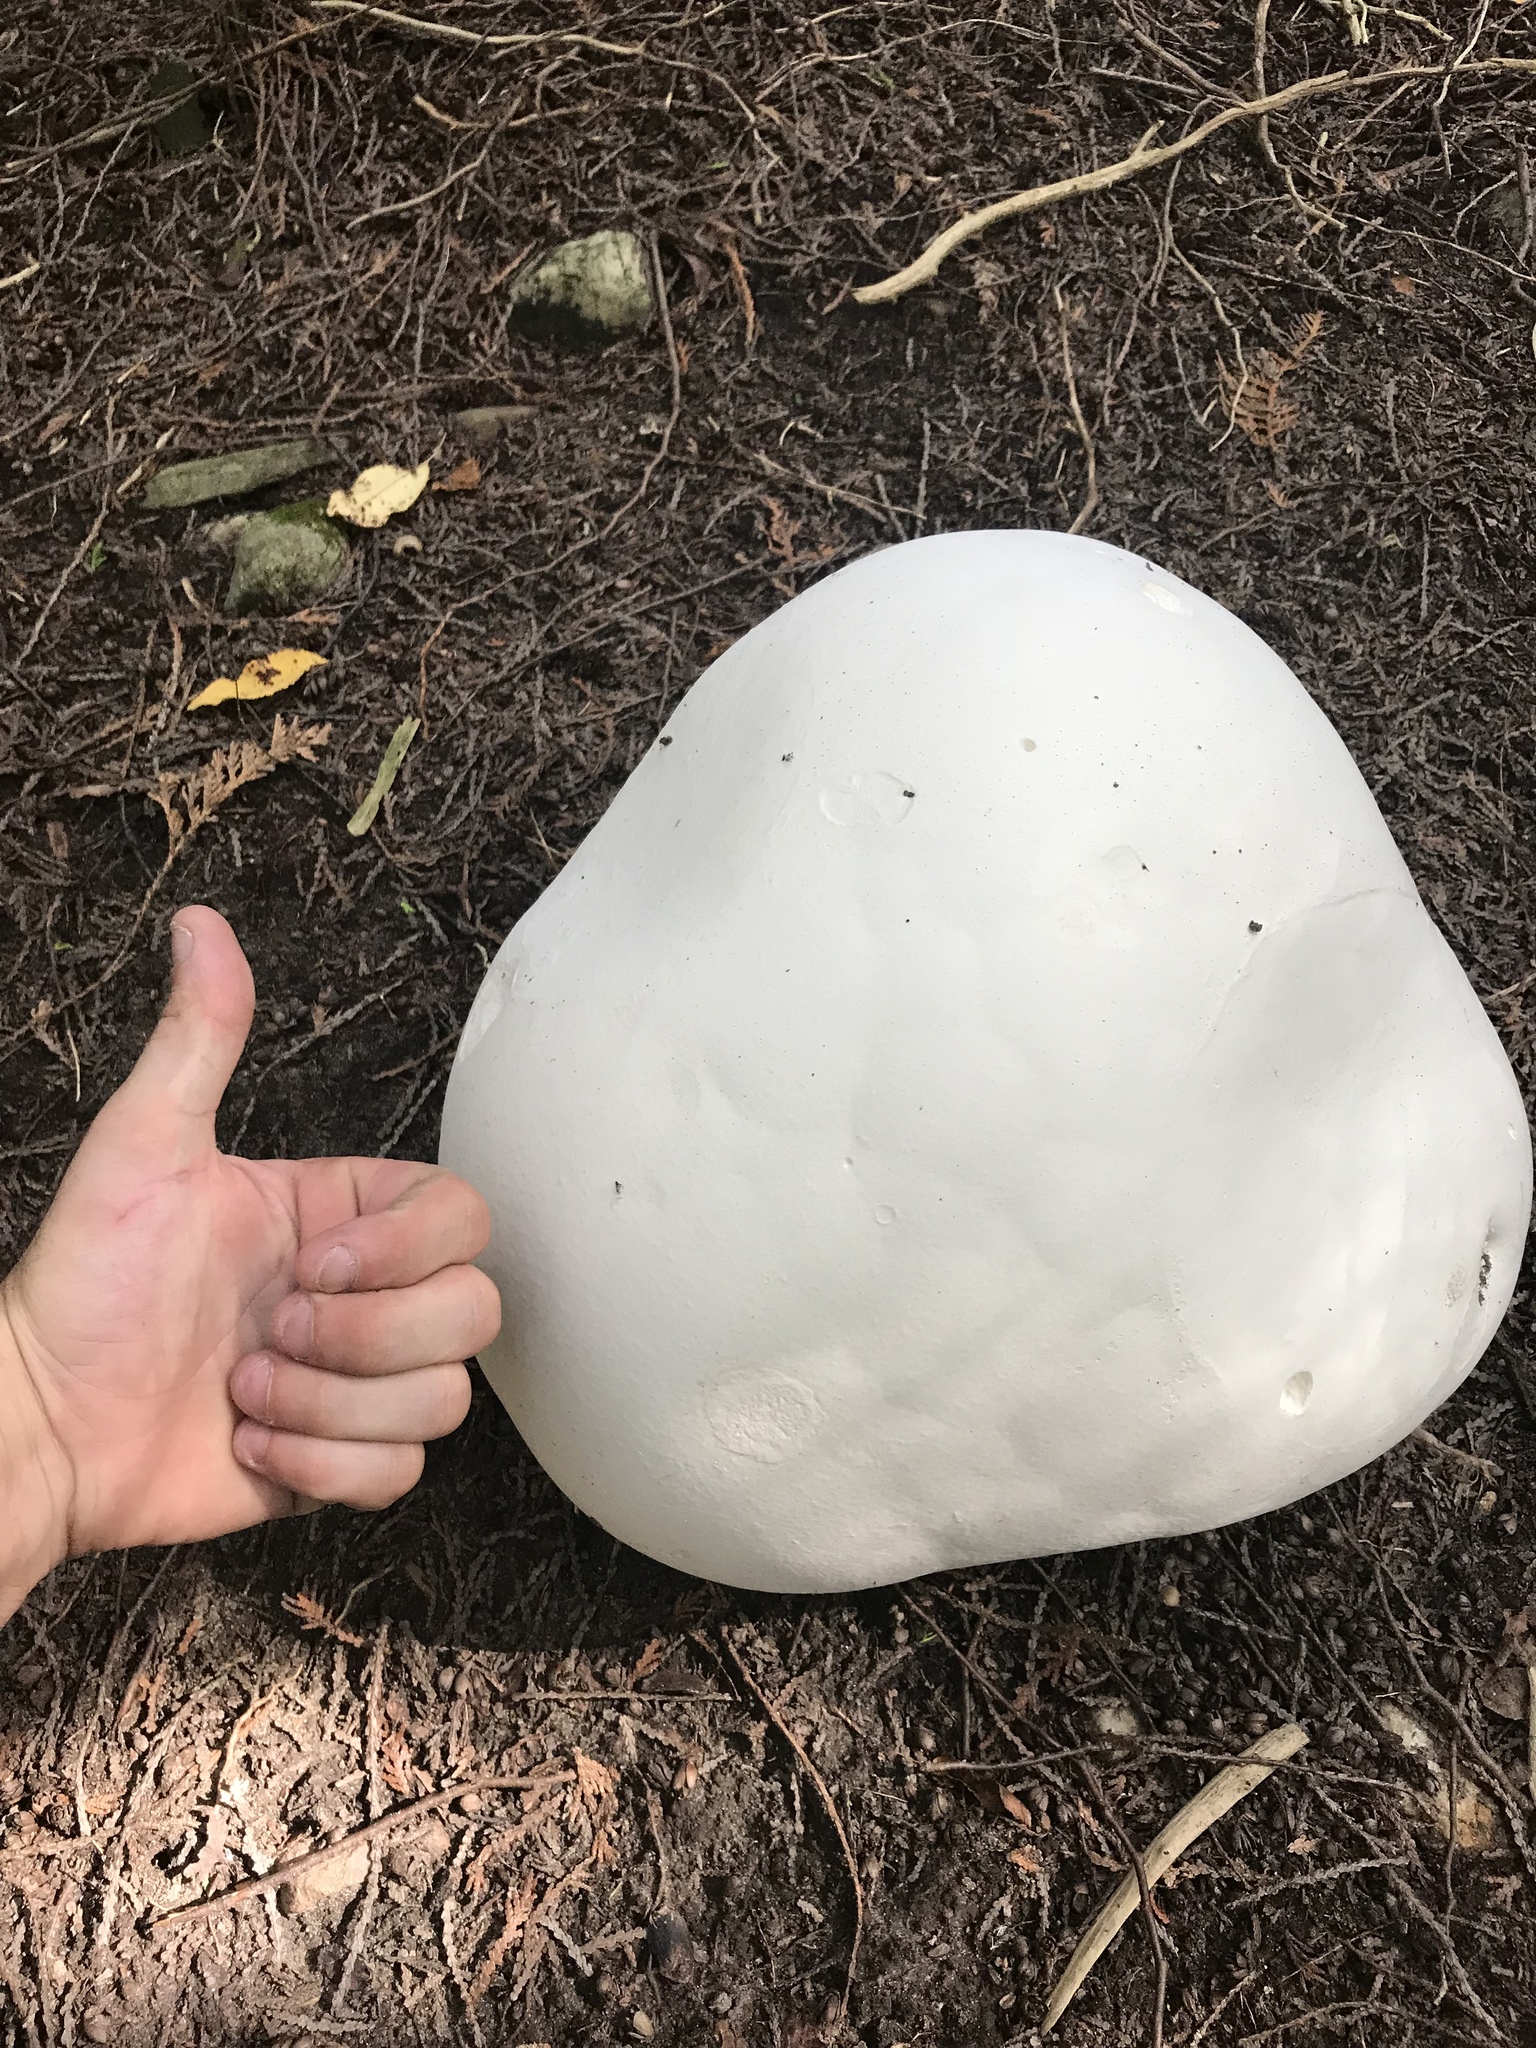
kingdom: Fungi
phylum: Basidiomycota
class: Agaricomycetes
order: Agaricales
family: Lycoperdaceae
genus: Calvatia
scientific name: Calvatia gigantea
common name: Giant puffball
